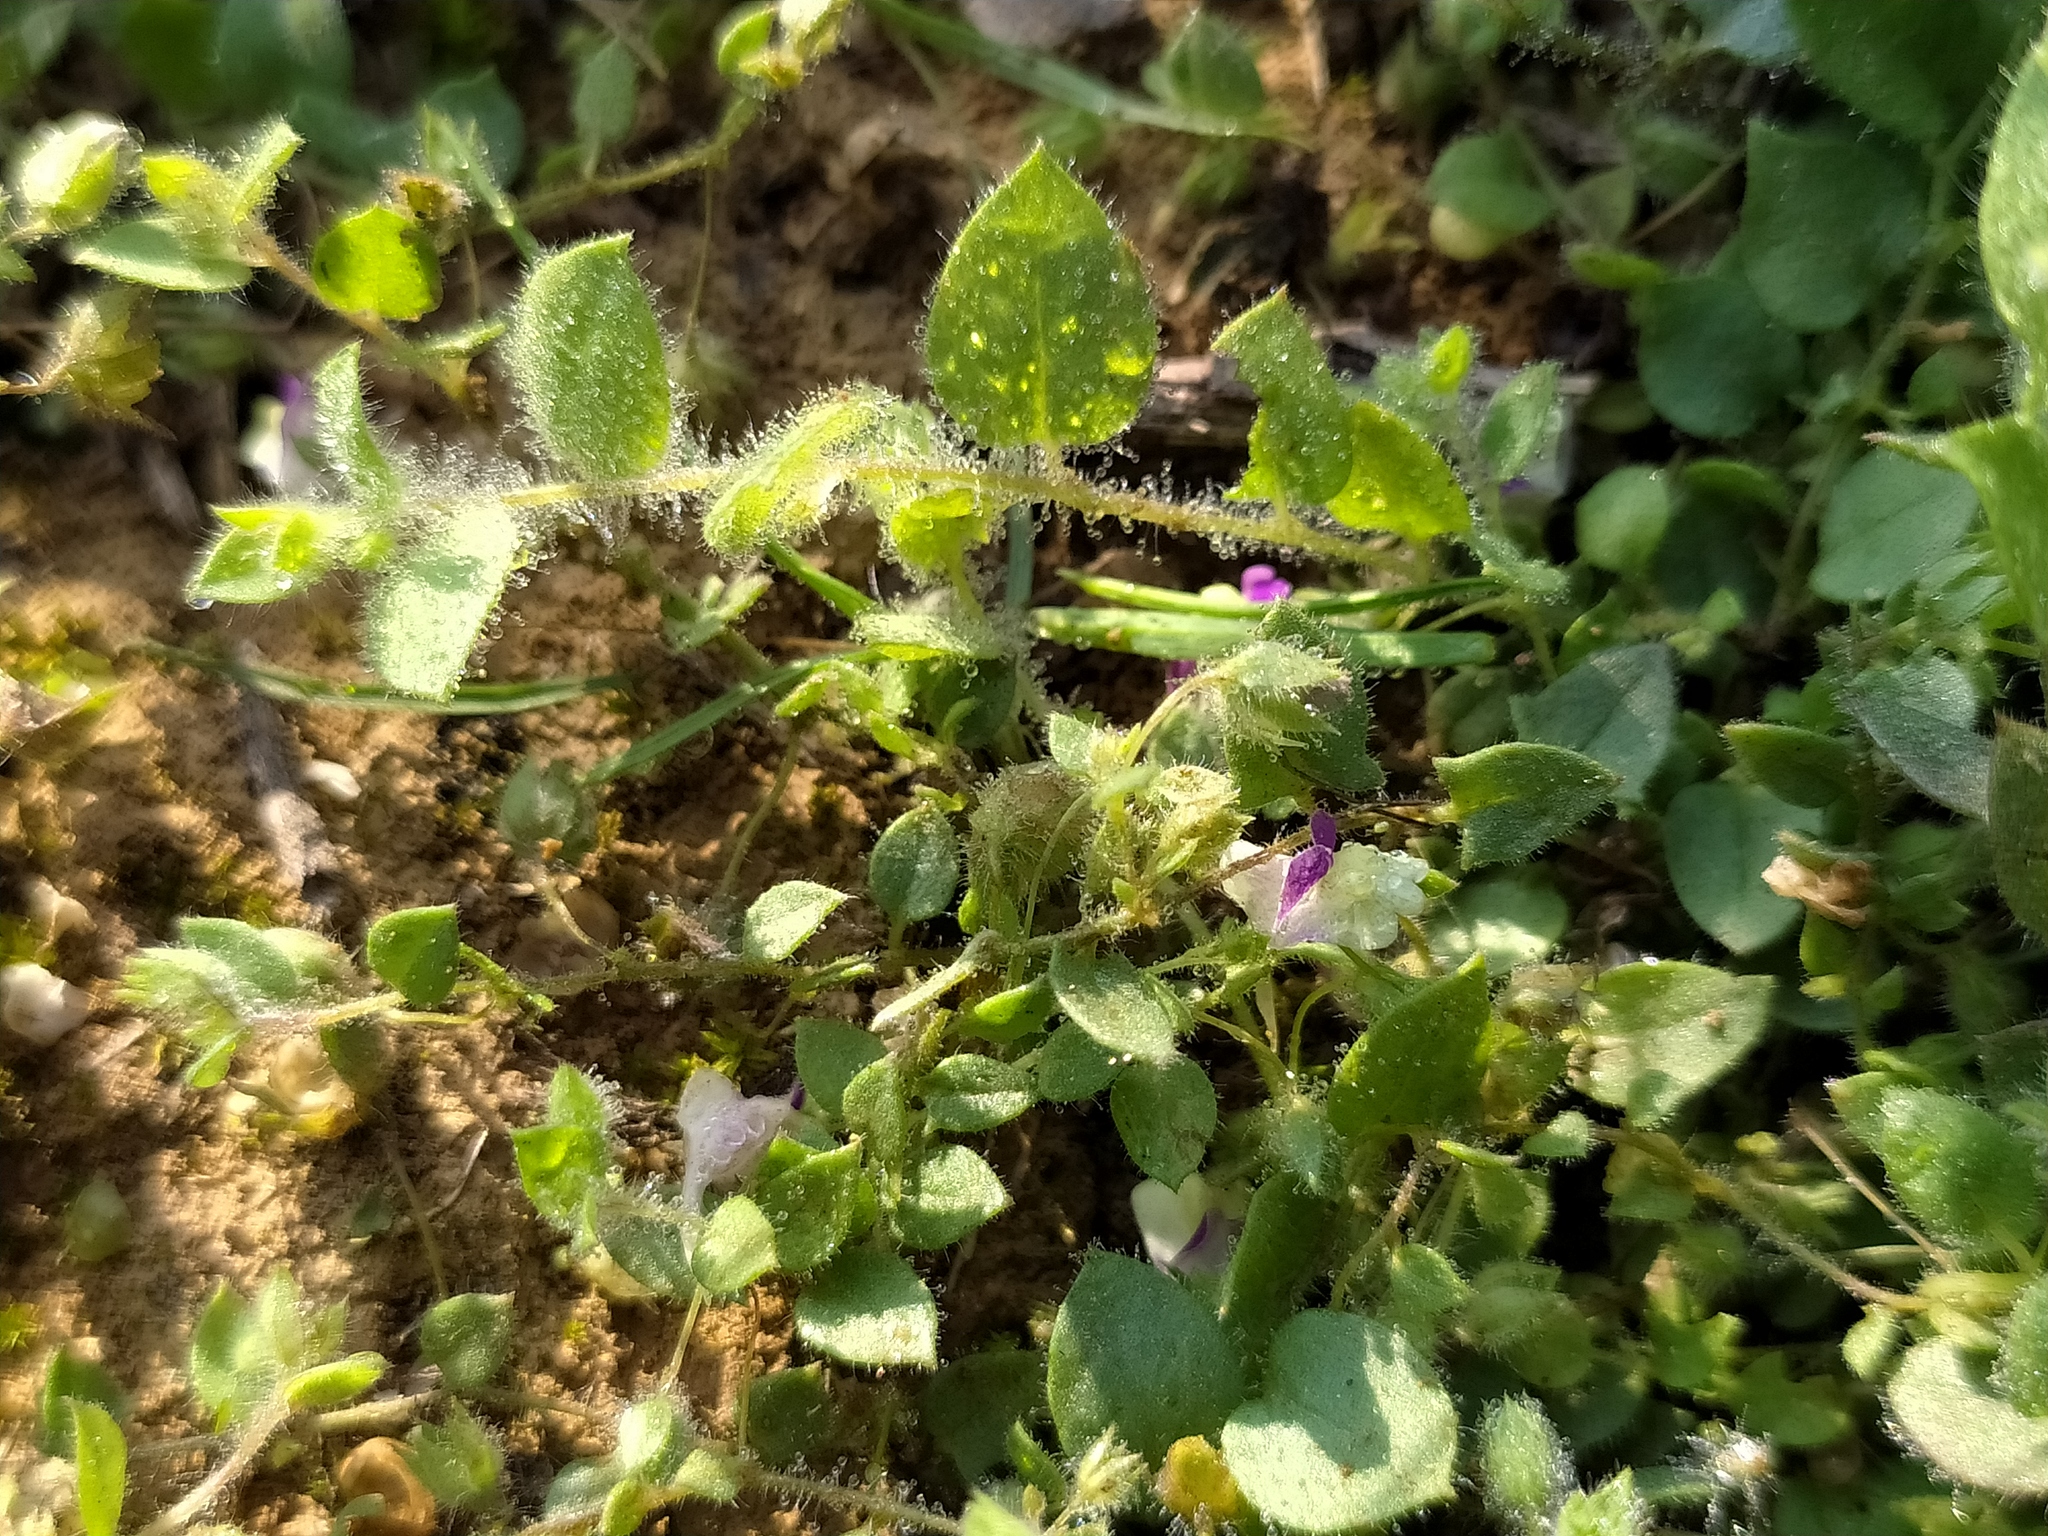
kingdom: Plantae
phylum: Tracheophyta
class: Magnoliopsida
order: Lamiales
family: Plantaginaceae
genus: Kickxia
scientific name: Kickxia elatine
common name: Sharp-leaved fluellen
